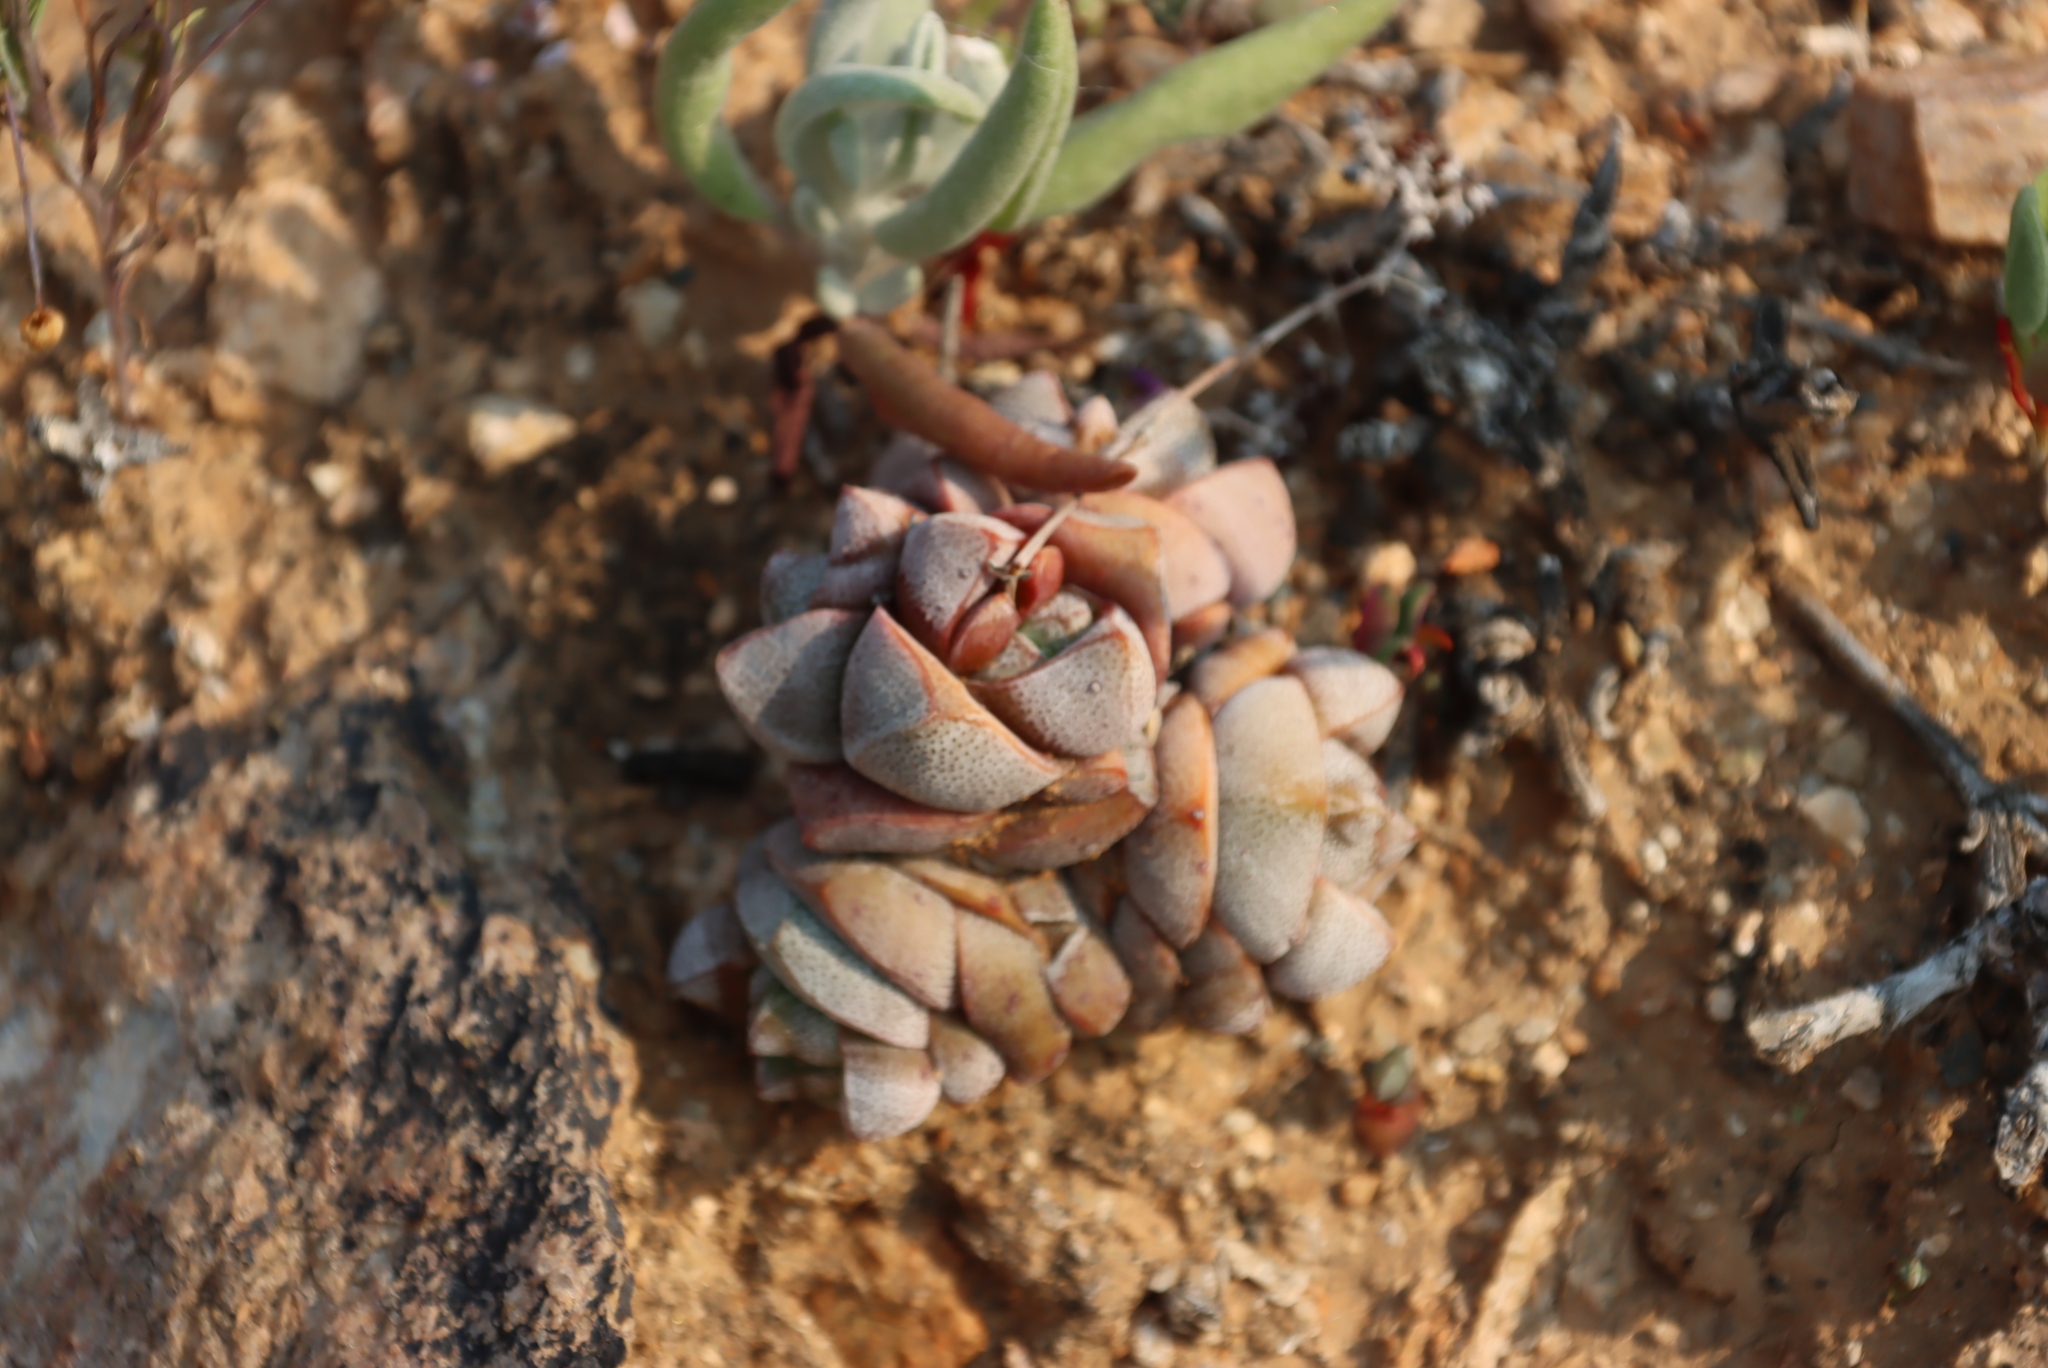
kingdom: Plantae
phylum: Tracheophyta
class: Magnoliopsida
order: Saxifragales
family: Crassulaceae
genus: Crassula
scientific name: Crassula deceptor
